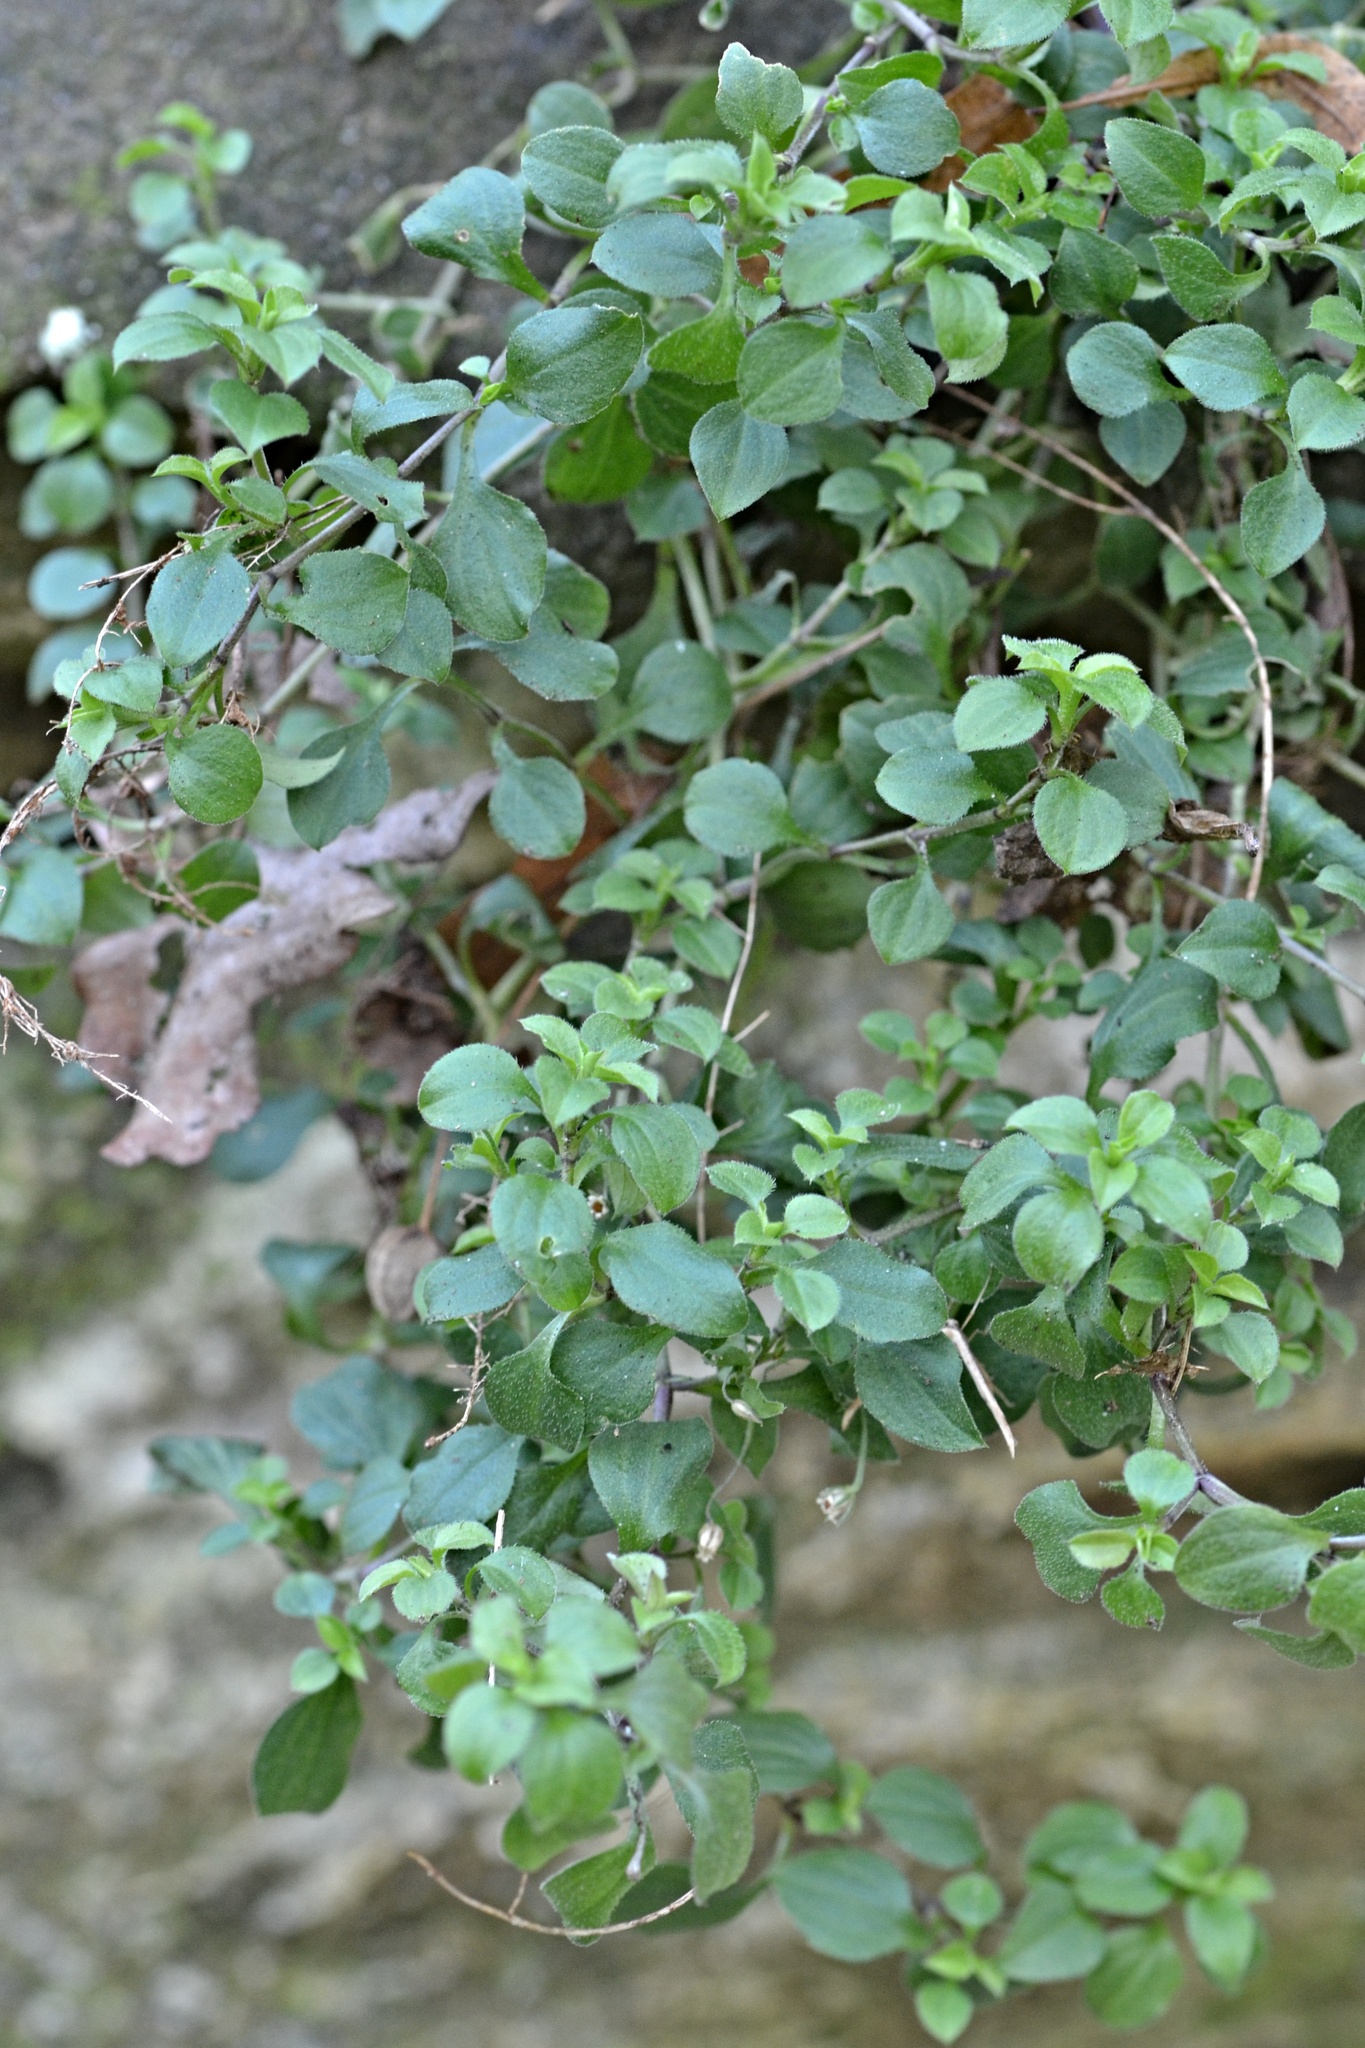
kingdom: Plantae
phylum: Tracheophyta
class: Magnoliopsida
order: Caryophyllales
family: Caryophyllaceae
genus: Moehringia
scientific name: Moehringia trinervia
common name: Three-nerved sandwort
